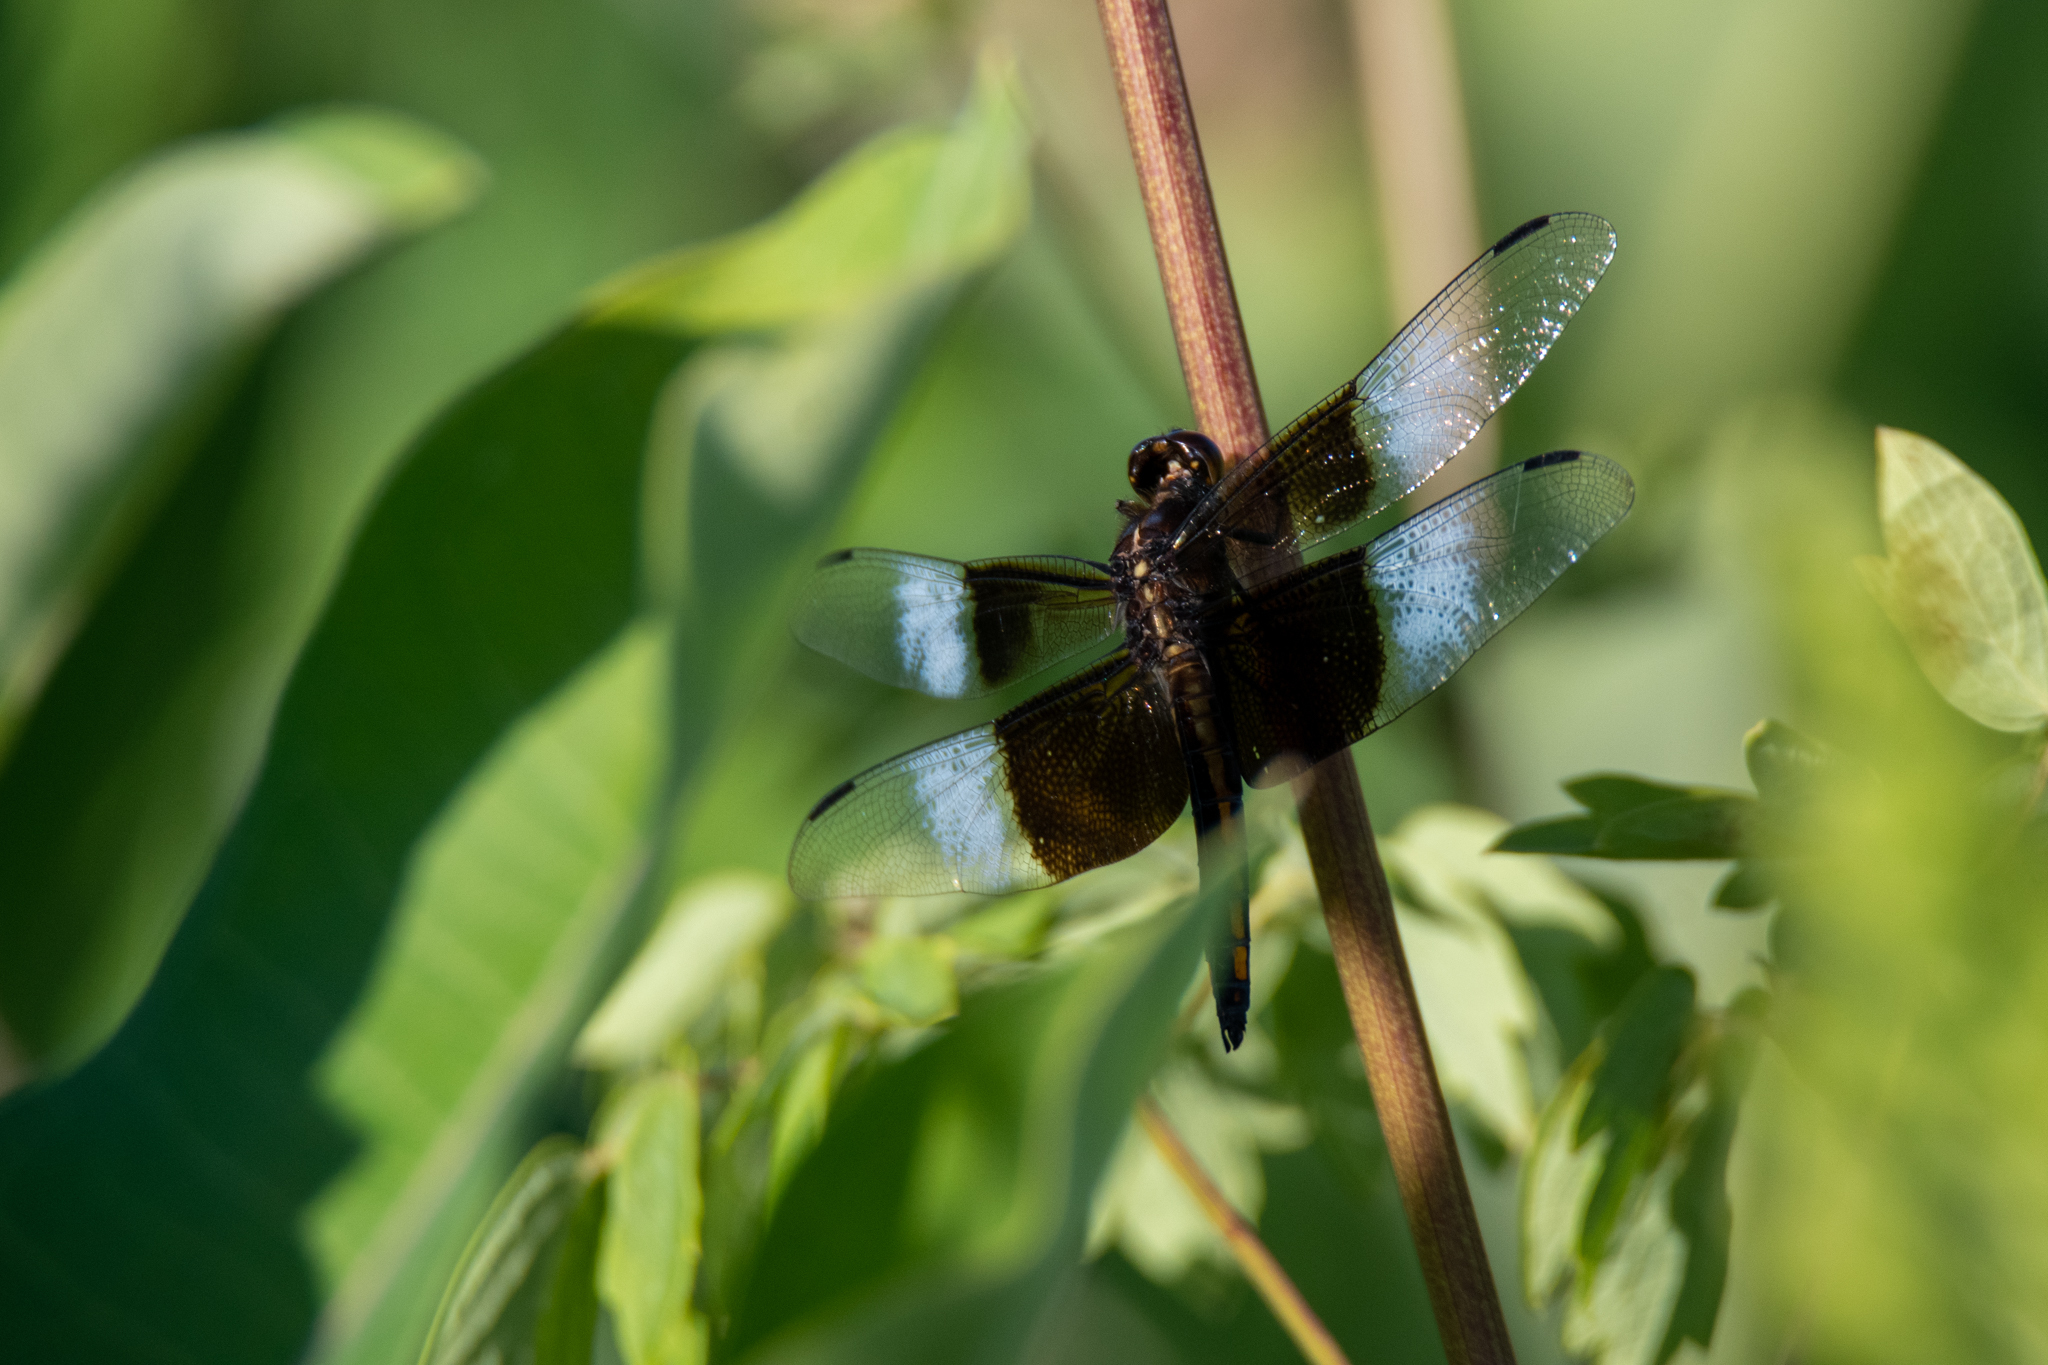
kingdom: Animalia
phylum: Arthropoda
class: Insecta
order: Odonata
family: Libellulidae
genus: Libellula
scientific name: Libellula luctuosa
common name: Widow skimmer
